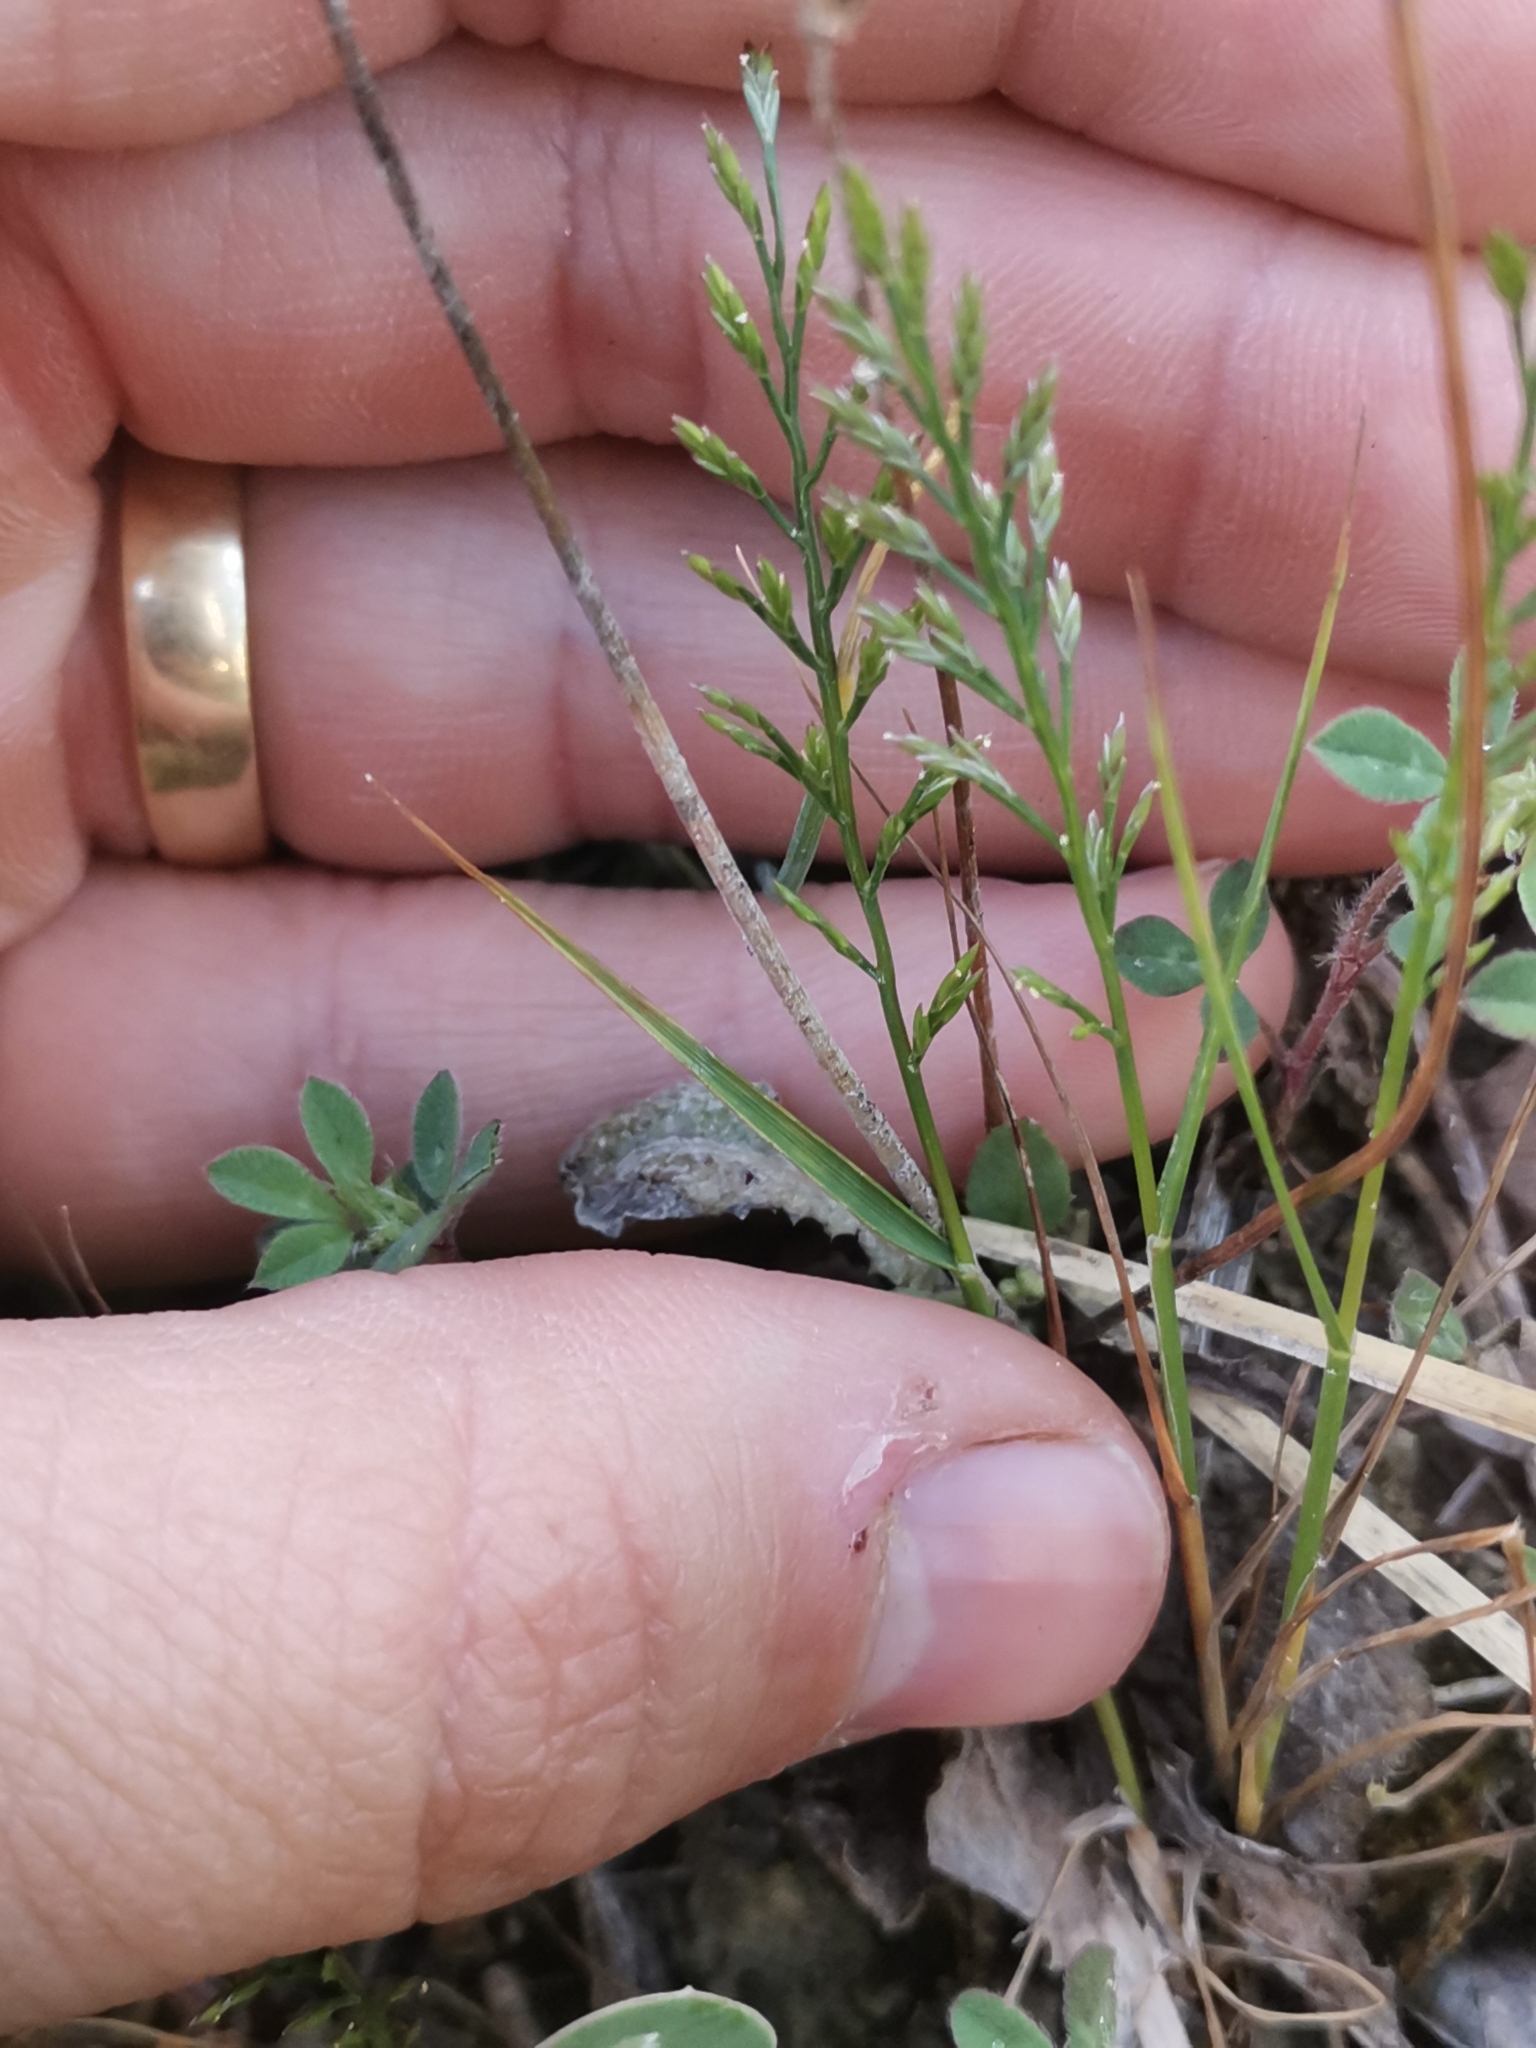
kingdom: Plantae
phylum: Tracheophyta
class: Liliopsida
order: Poales
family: Poaceae
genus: Catapodium
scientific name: Catapodium rigidum
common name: Fern-grass
